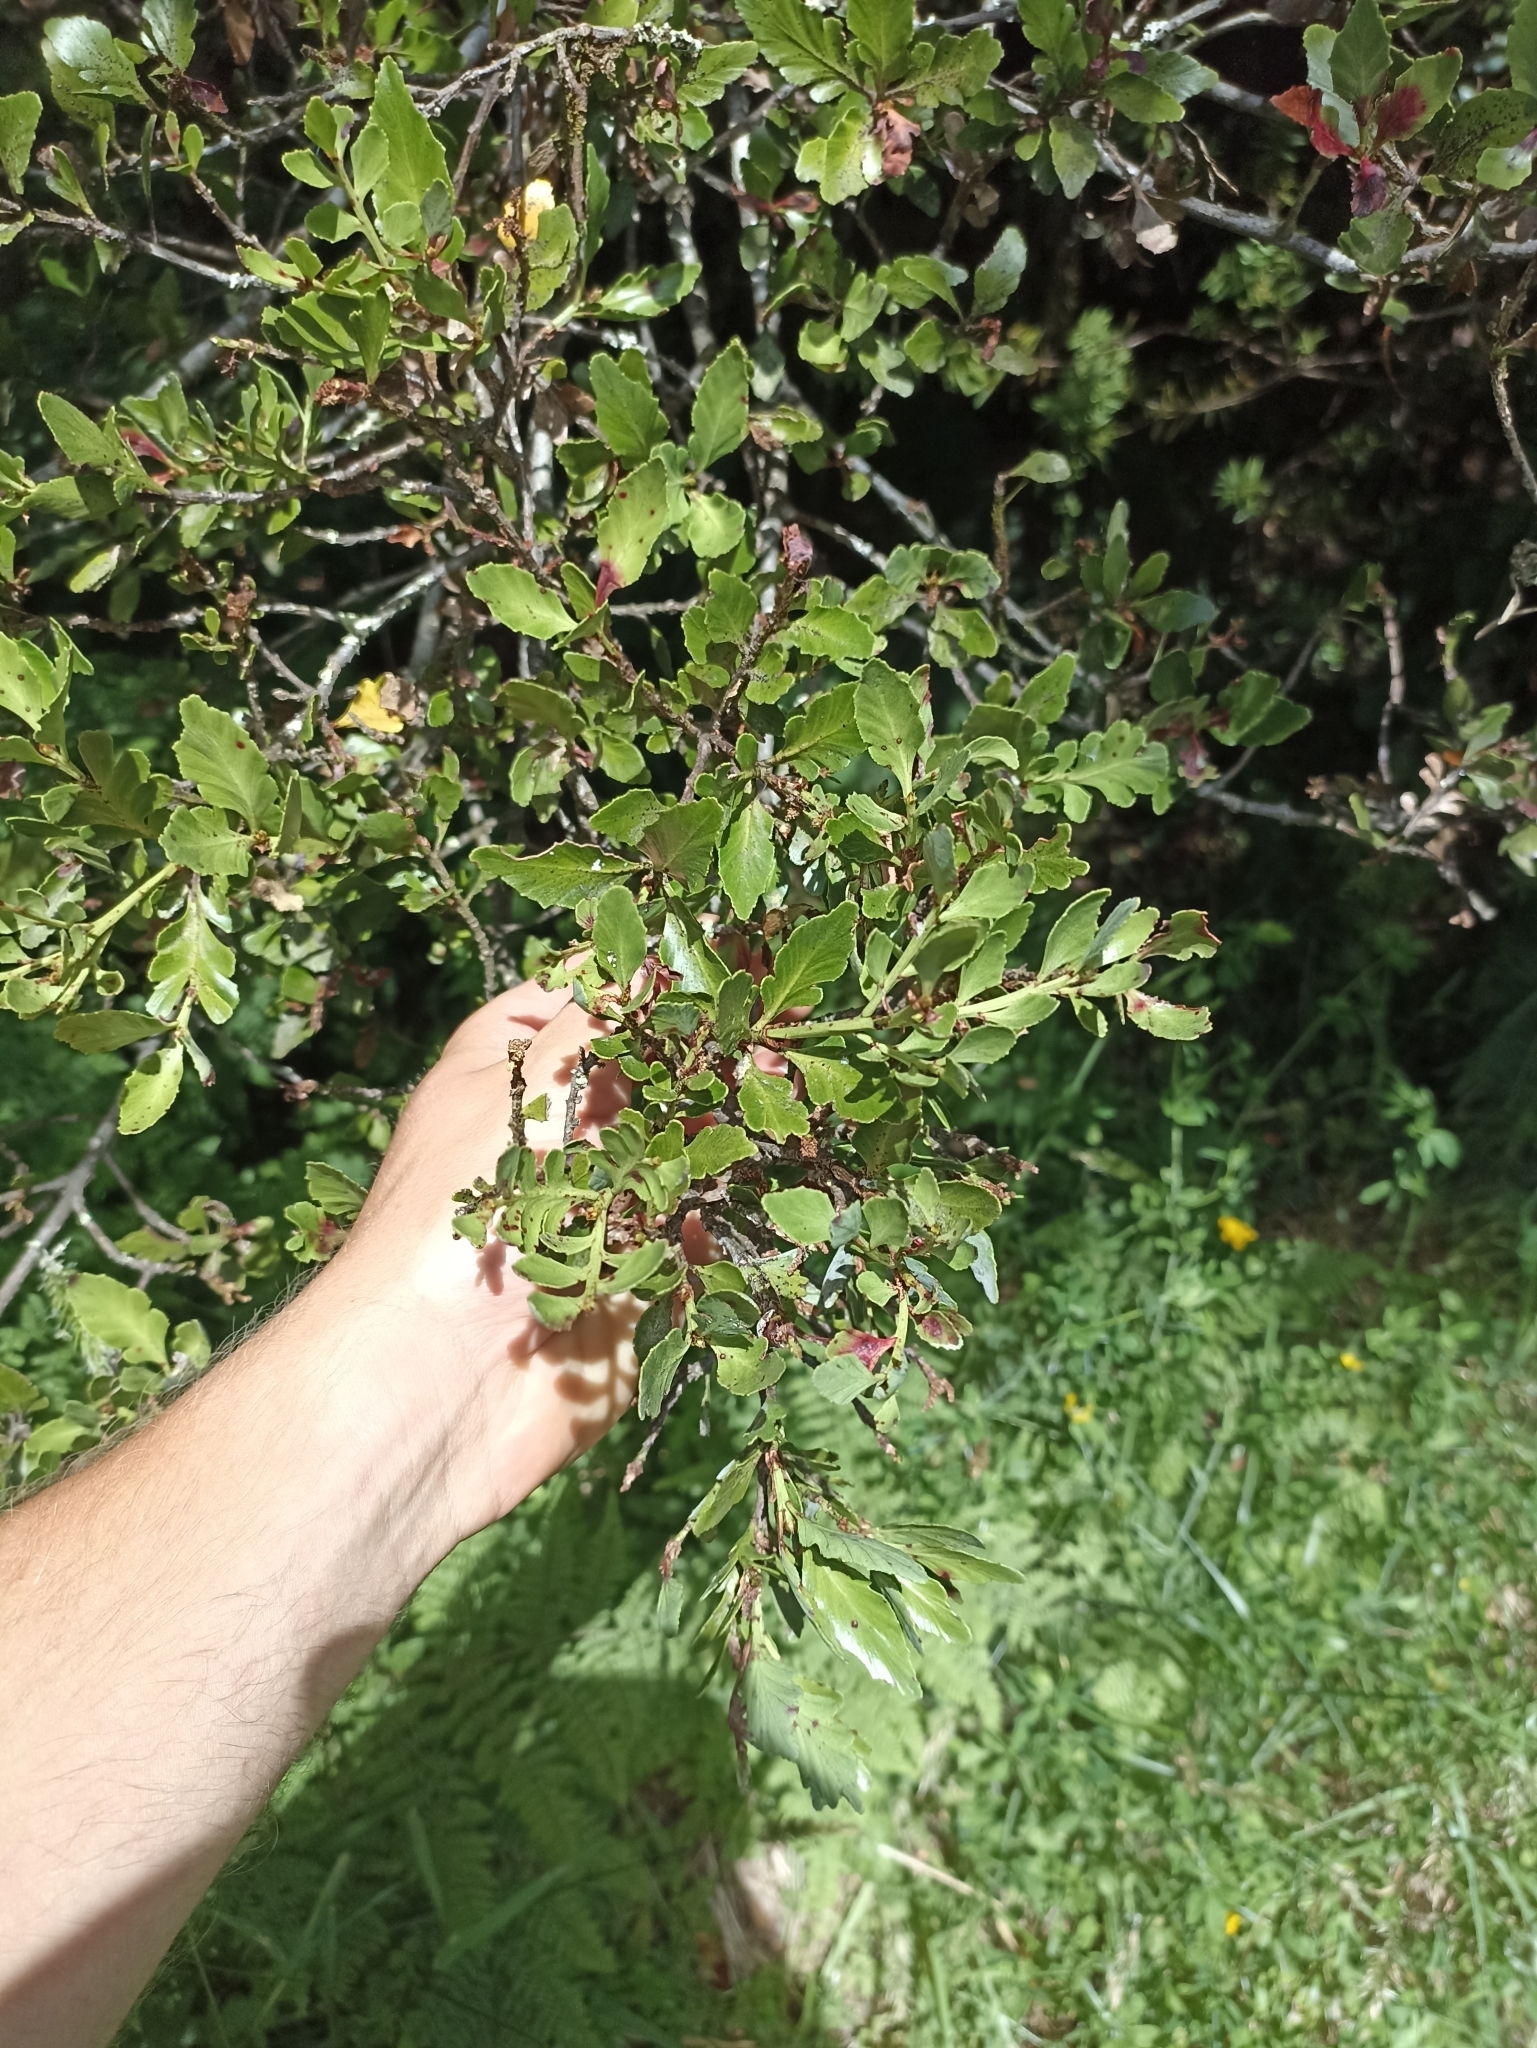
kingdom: Plantae
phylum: Tracheophyta
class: Pinopsida
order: Pinales
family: Phyllocladaceae
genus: Phyllocladus
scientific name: Phyllocladus trichomanoides
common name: Celery pine
